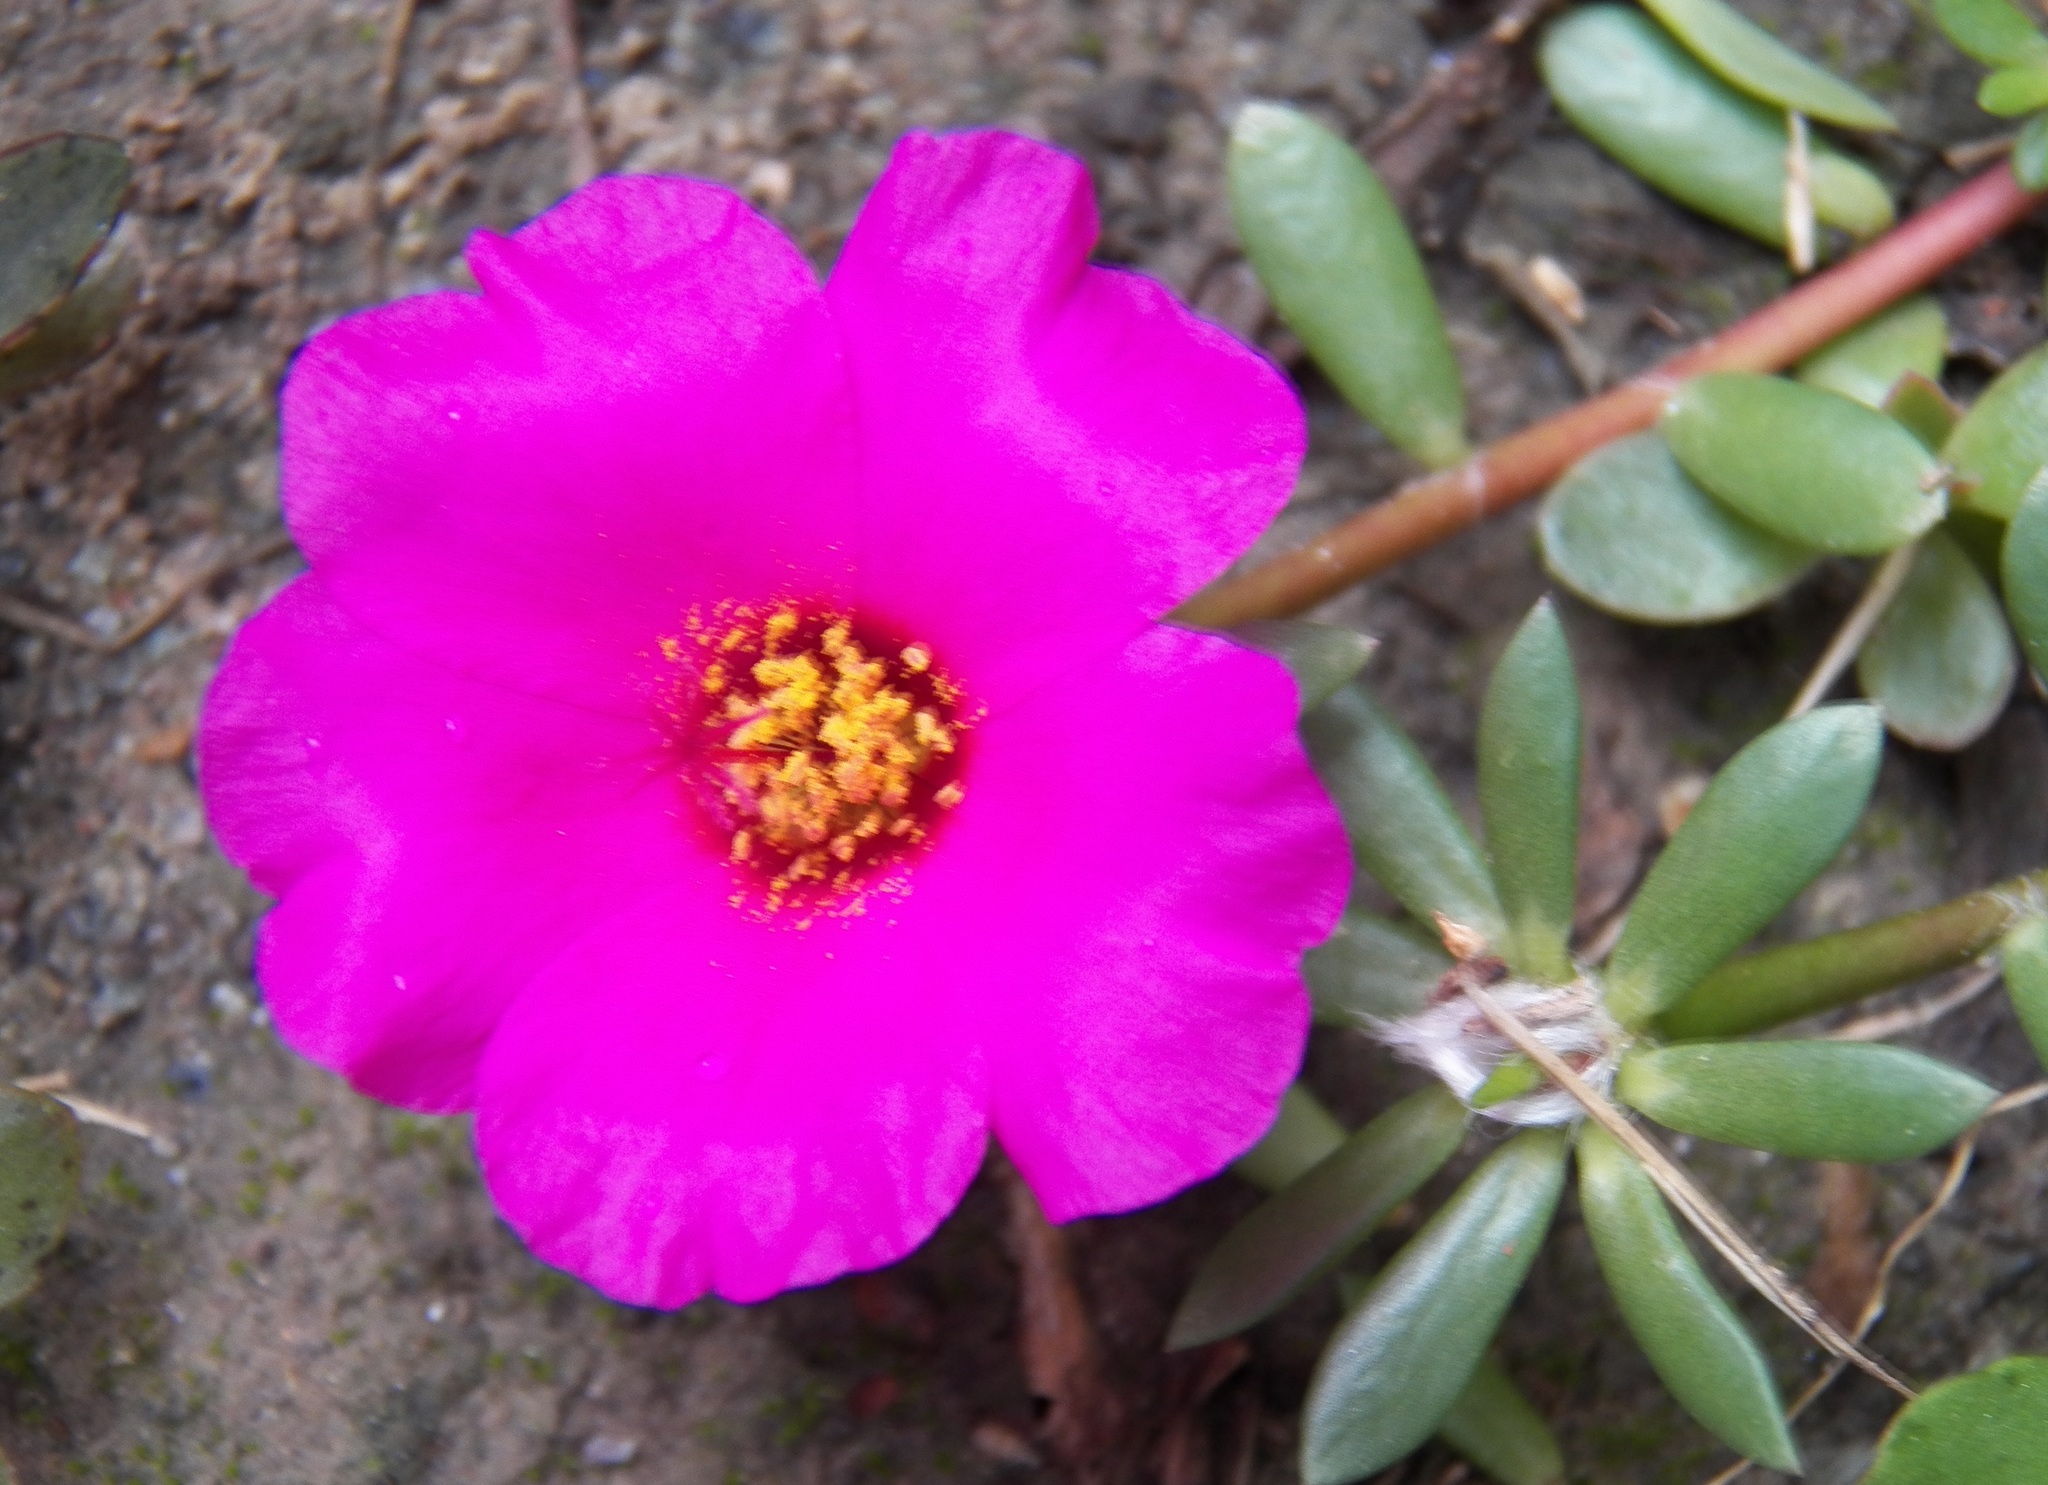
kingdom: Plantae
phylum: Tracheophyta
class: Magnoliopsida
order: Caryophyllales
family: Portulacaceae
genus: Portulaca
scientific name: Portulaca pilosa
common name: Kiss me quick
